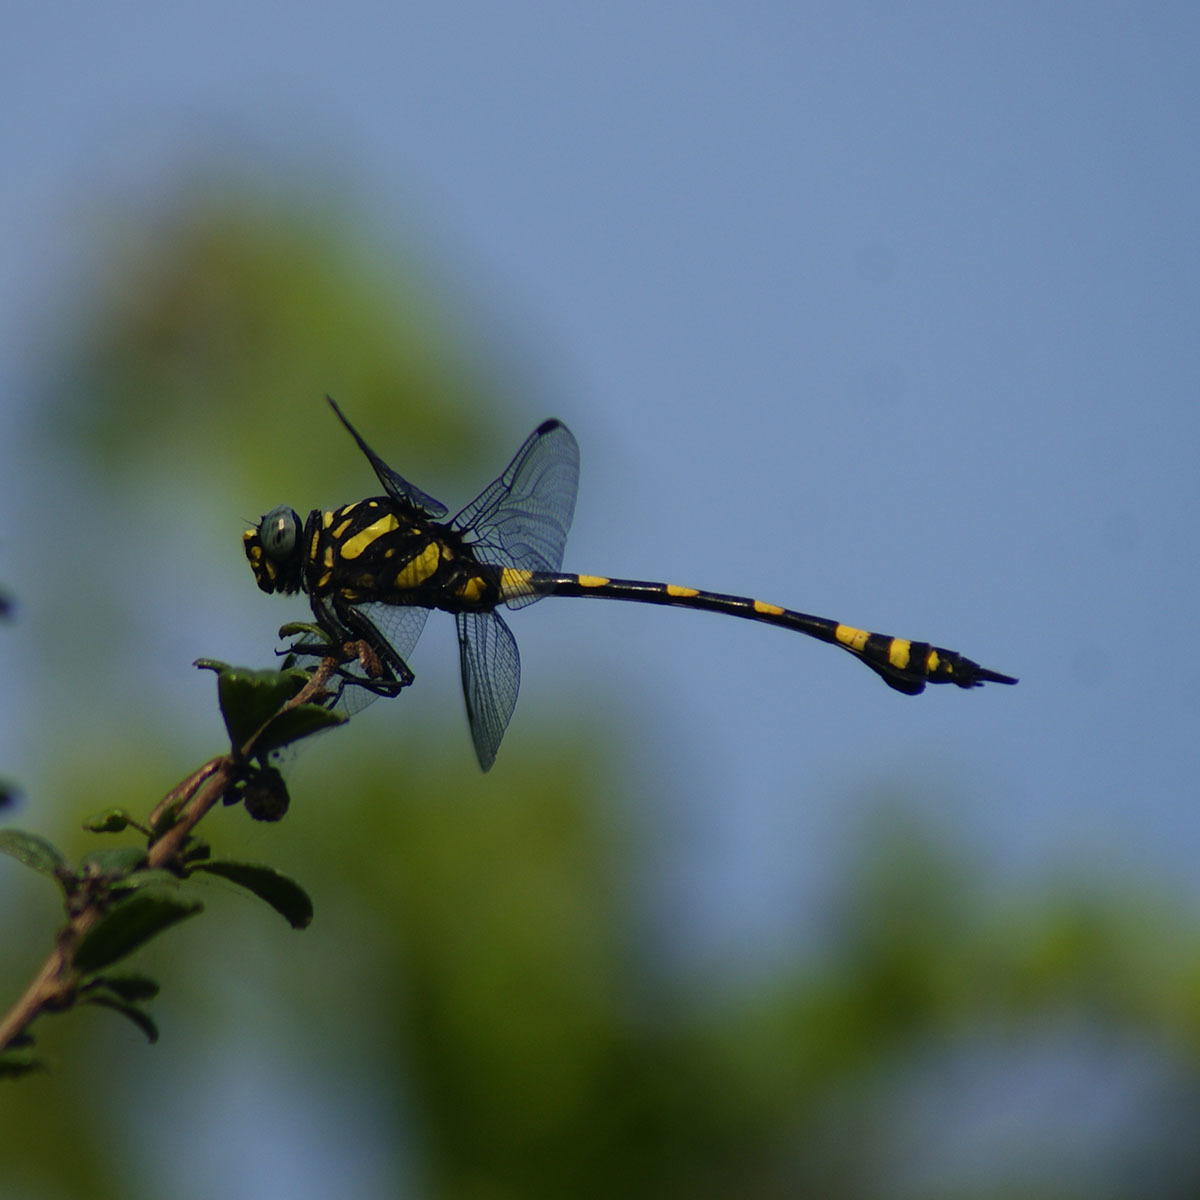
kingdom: Animalia
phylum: Arthropoda
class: Insecta
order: Odonata
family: Gomphidae
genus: Ictinogomphus
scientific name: Ictinogomphus rapax
